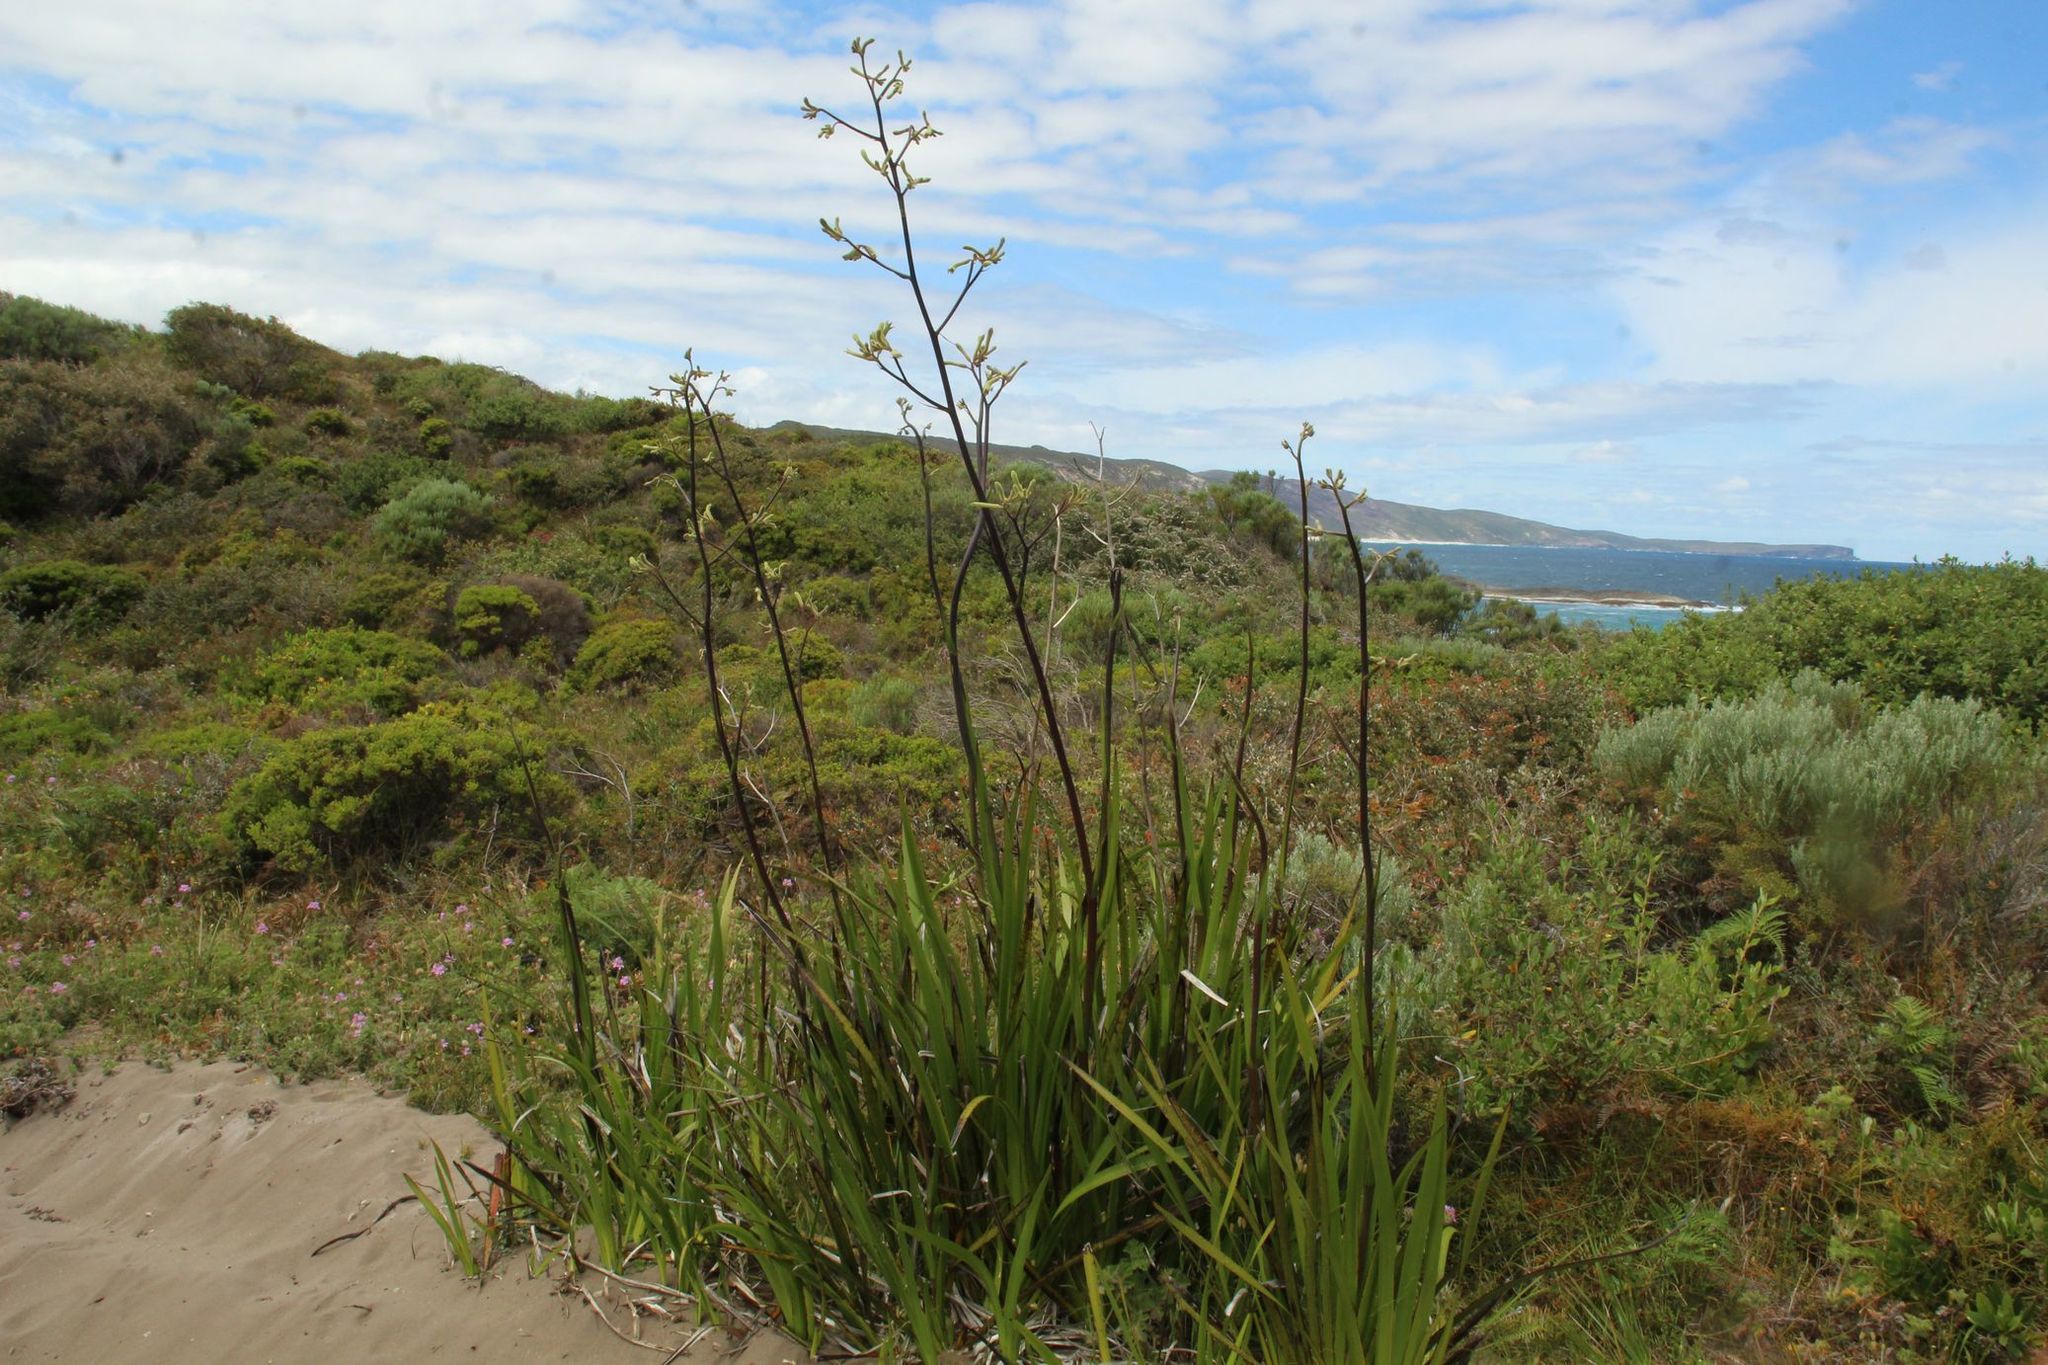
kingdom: Plantae
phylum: Tracheophyta
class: Liliopsida
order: Commelinales
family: Haemodoraceae
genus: Anigozanthos
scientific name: Anigozanthos flavidus
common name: Evergreen kangaroo-paw
